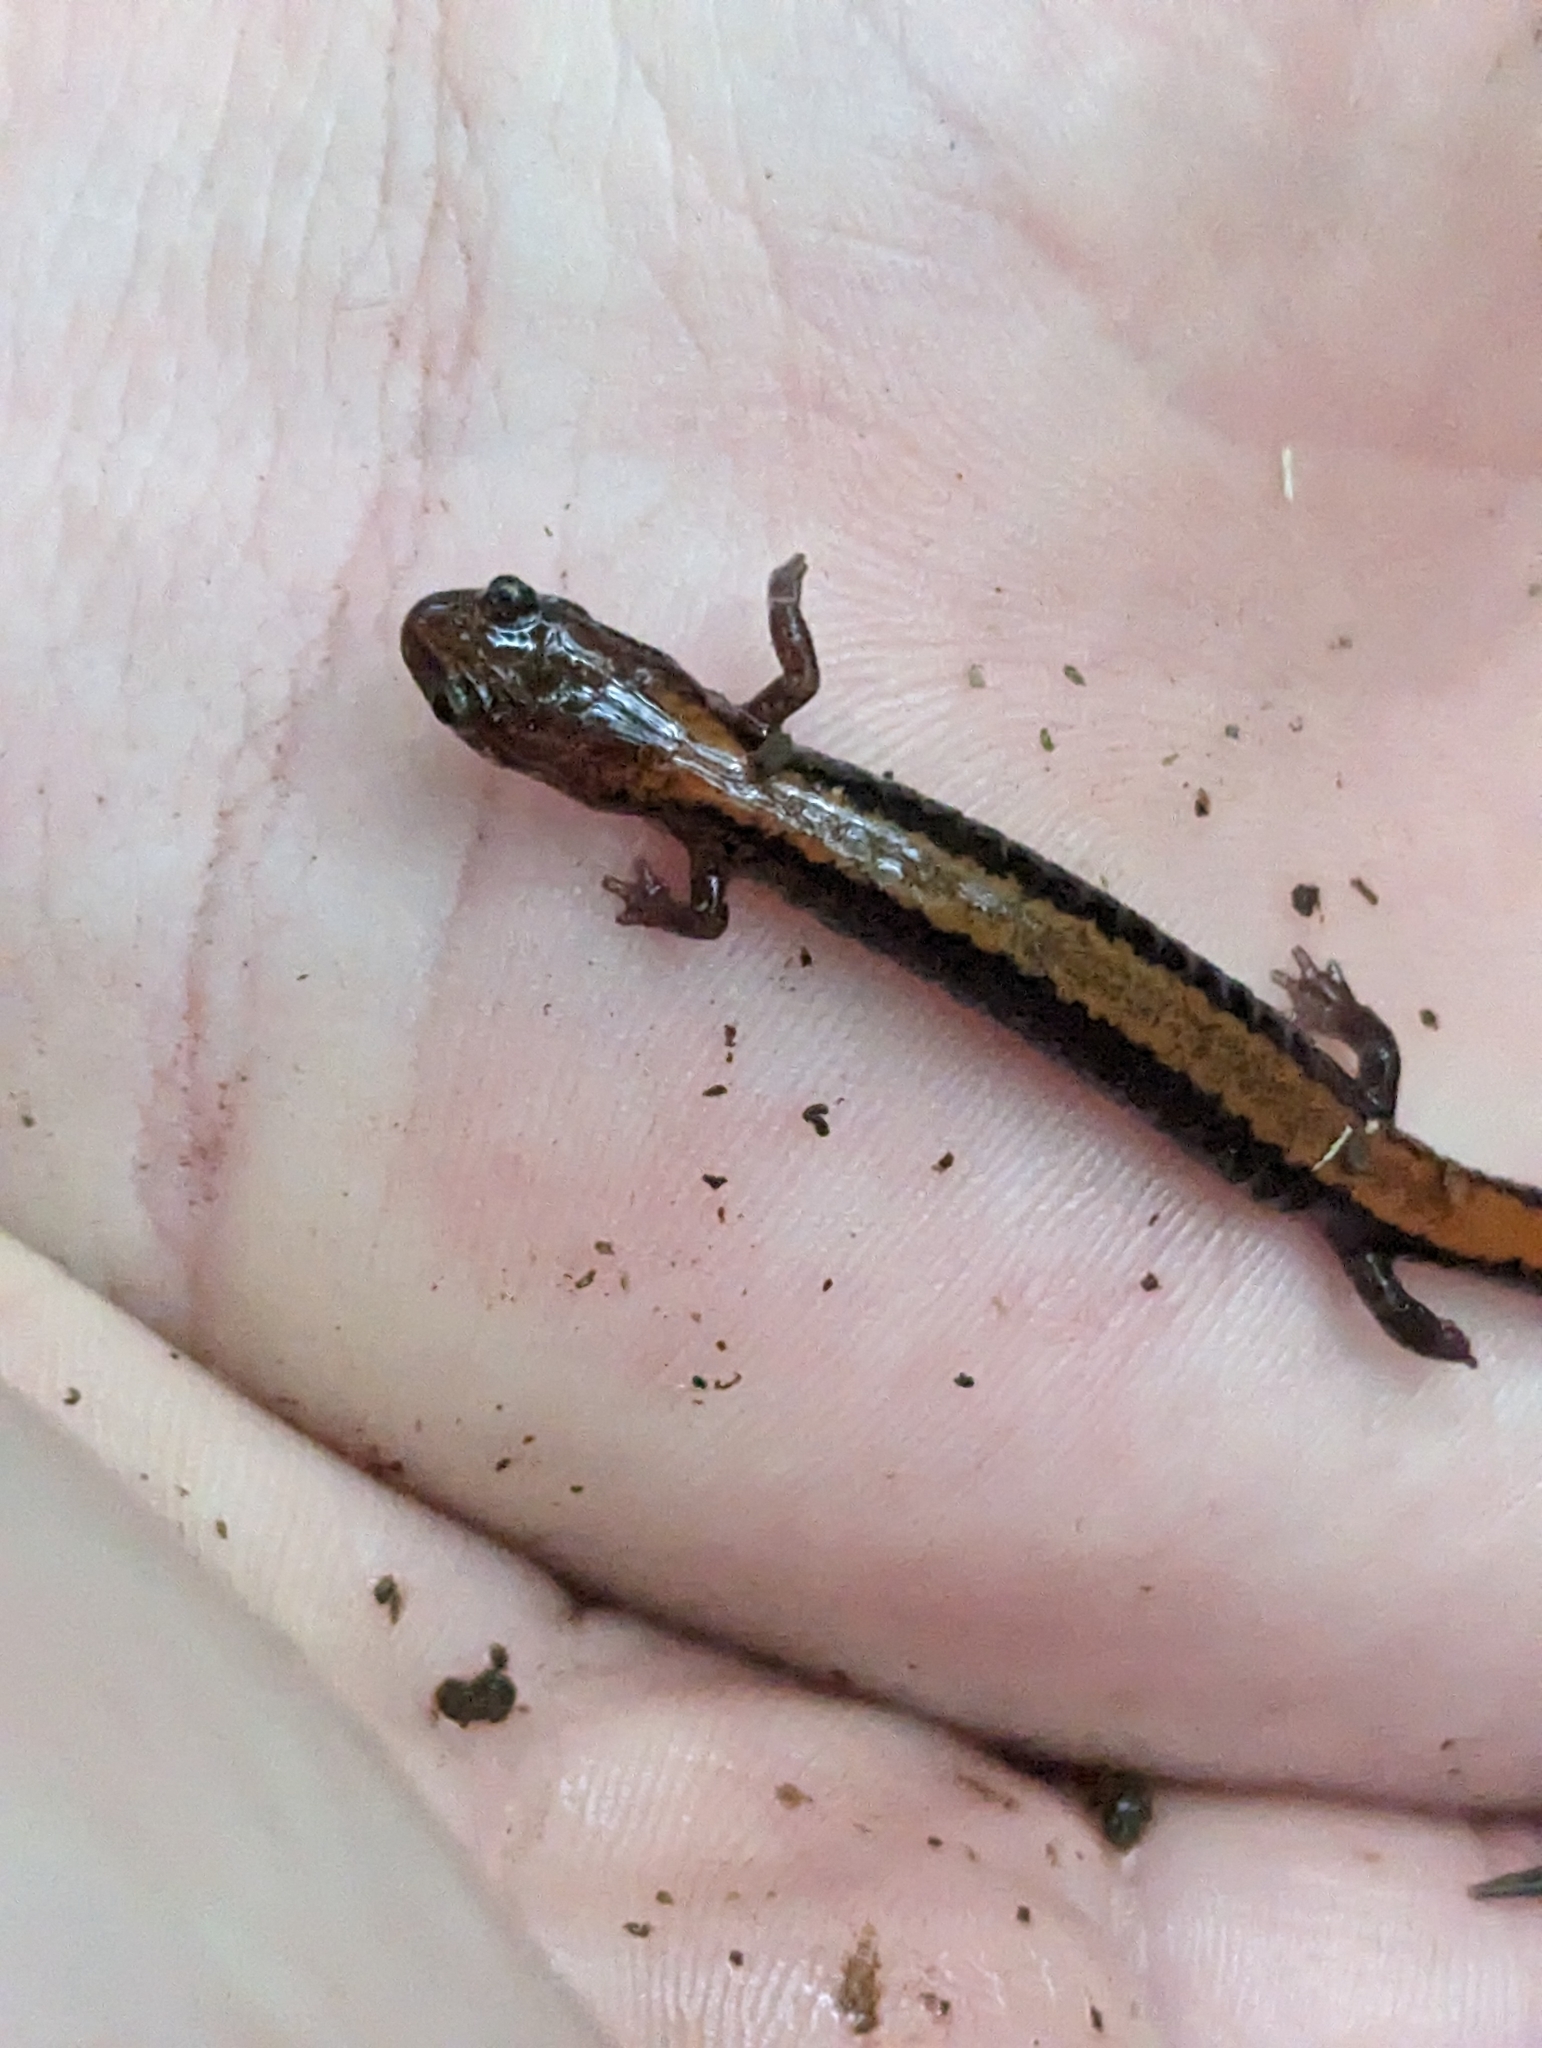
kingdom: Animalia
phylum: Chordata
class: Amphibia
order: Caudata
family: Plethodontidae
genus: Plethodon
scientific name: Plethodon cinereus
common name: Redback salamander
